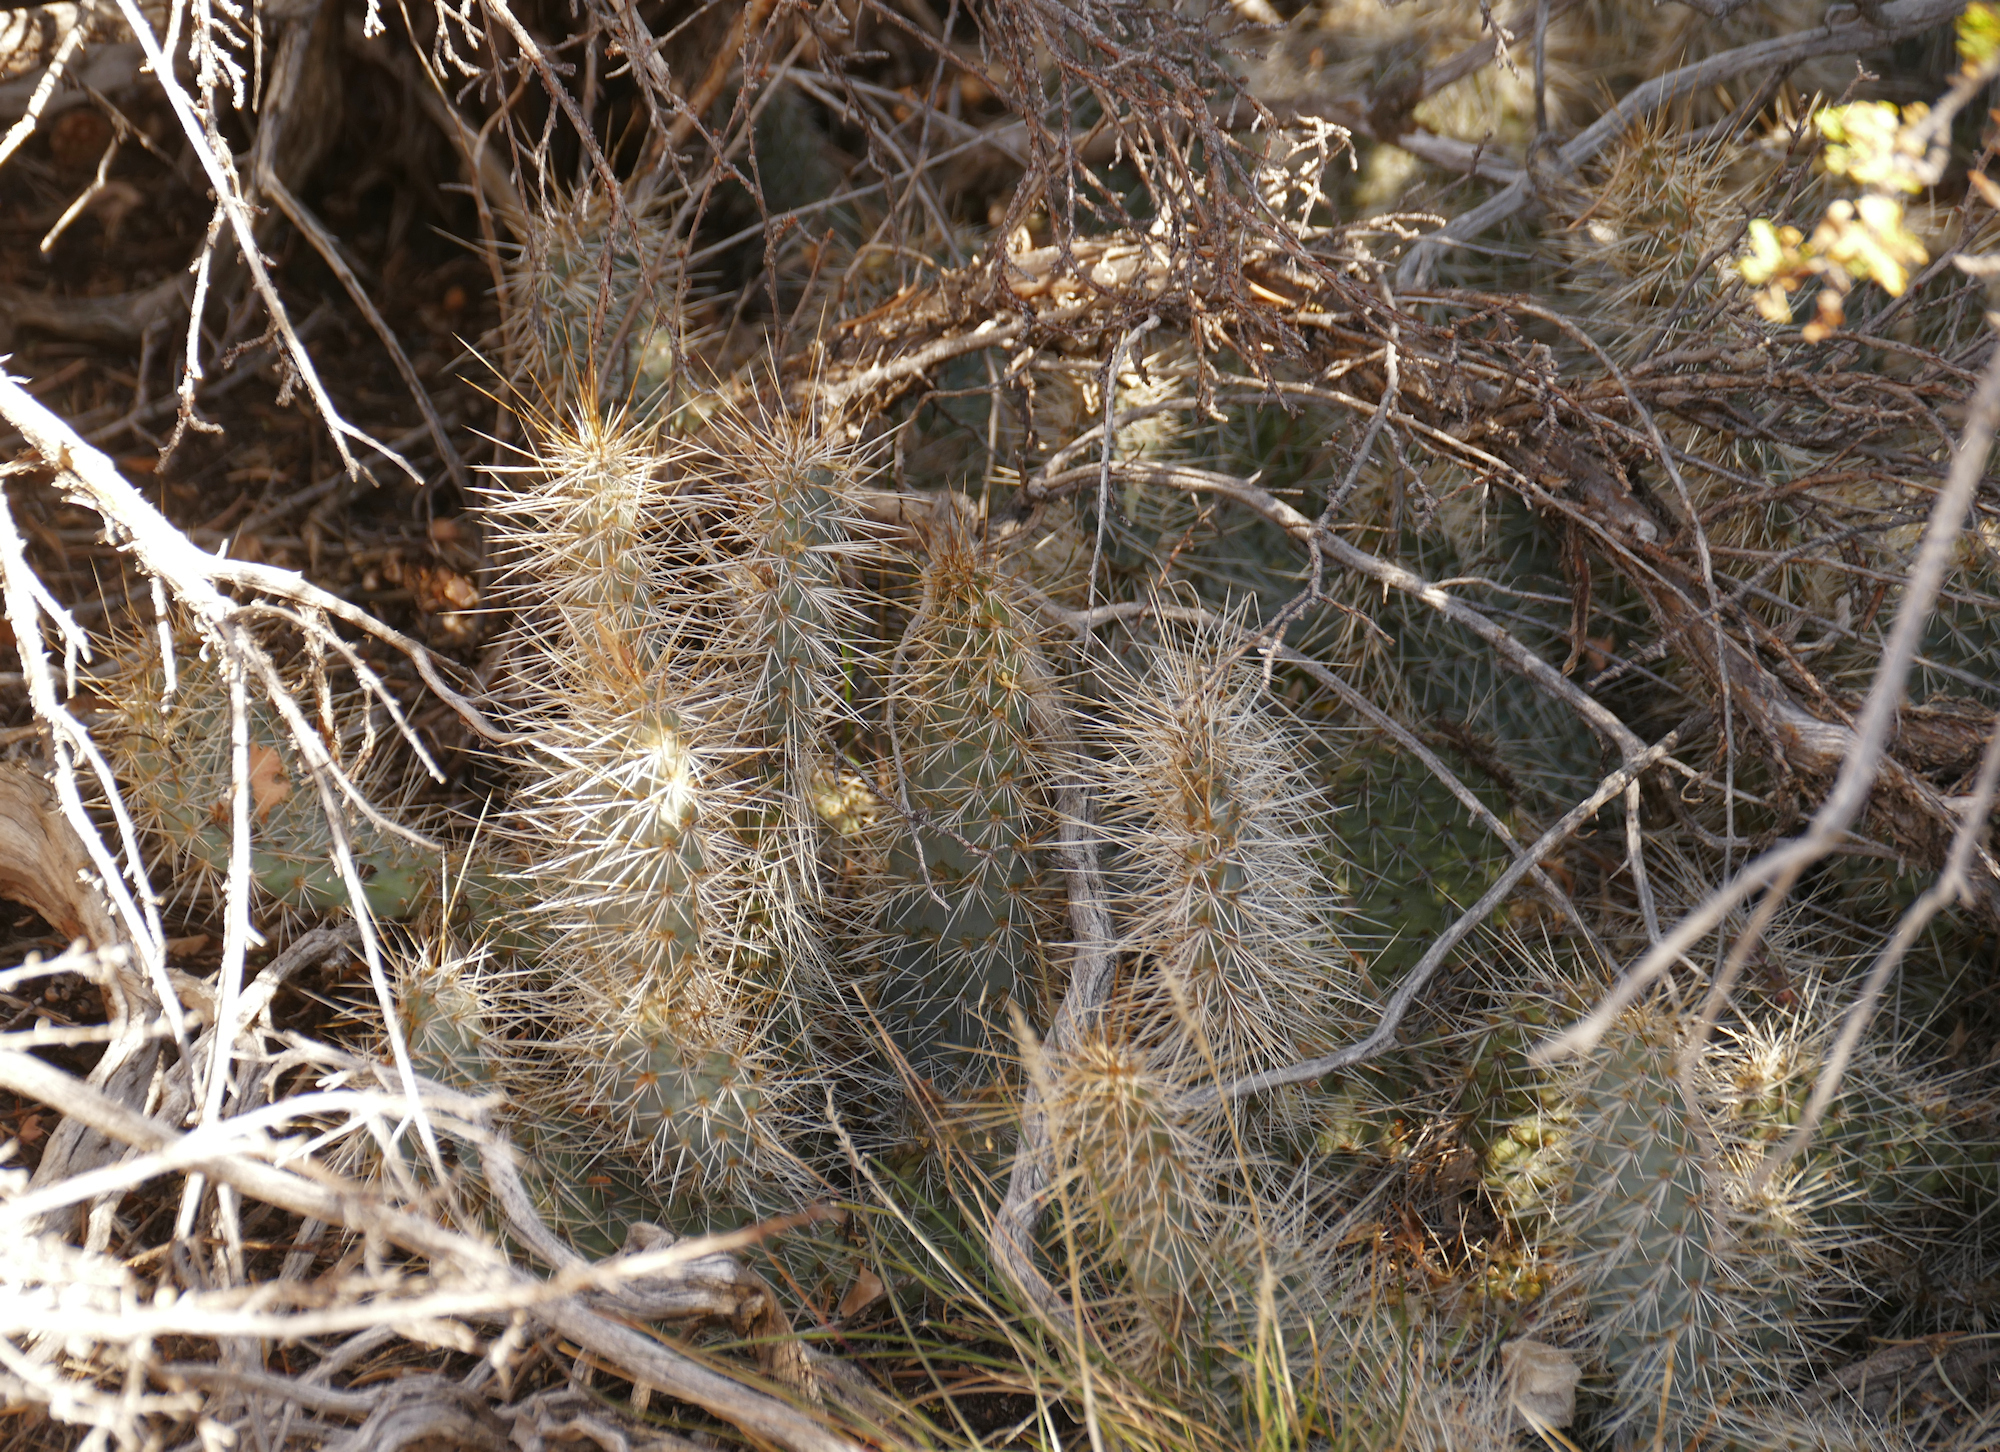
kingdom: Plantae
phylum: Tracheophyta
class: Magnoliopsida
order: Caryophyllales
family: Cactaceae
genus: Opuntia
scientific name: Opuntia polyacantha
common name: Plains prickly-pear
